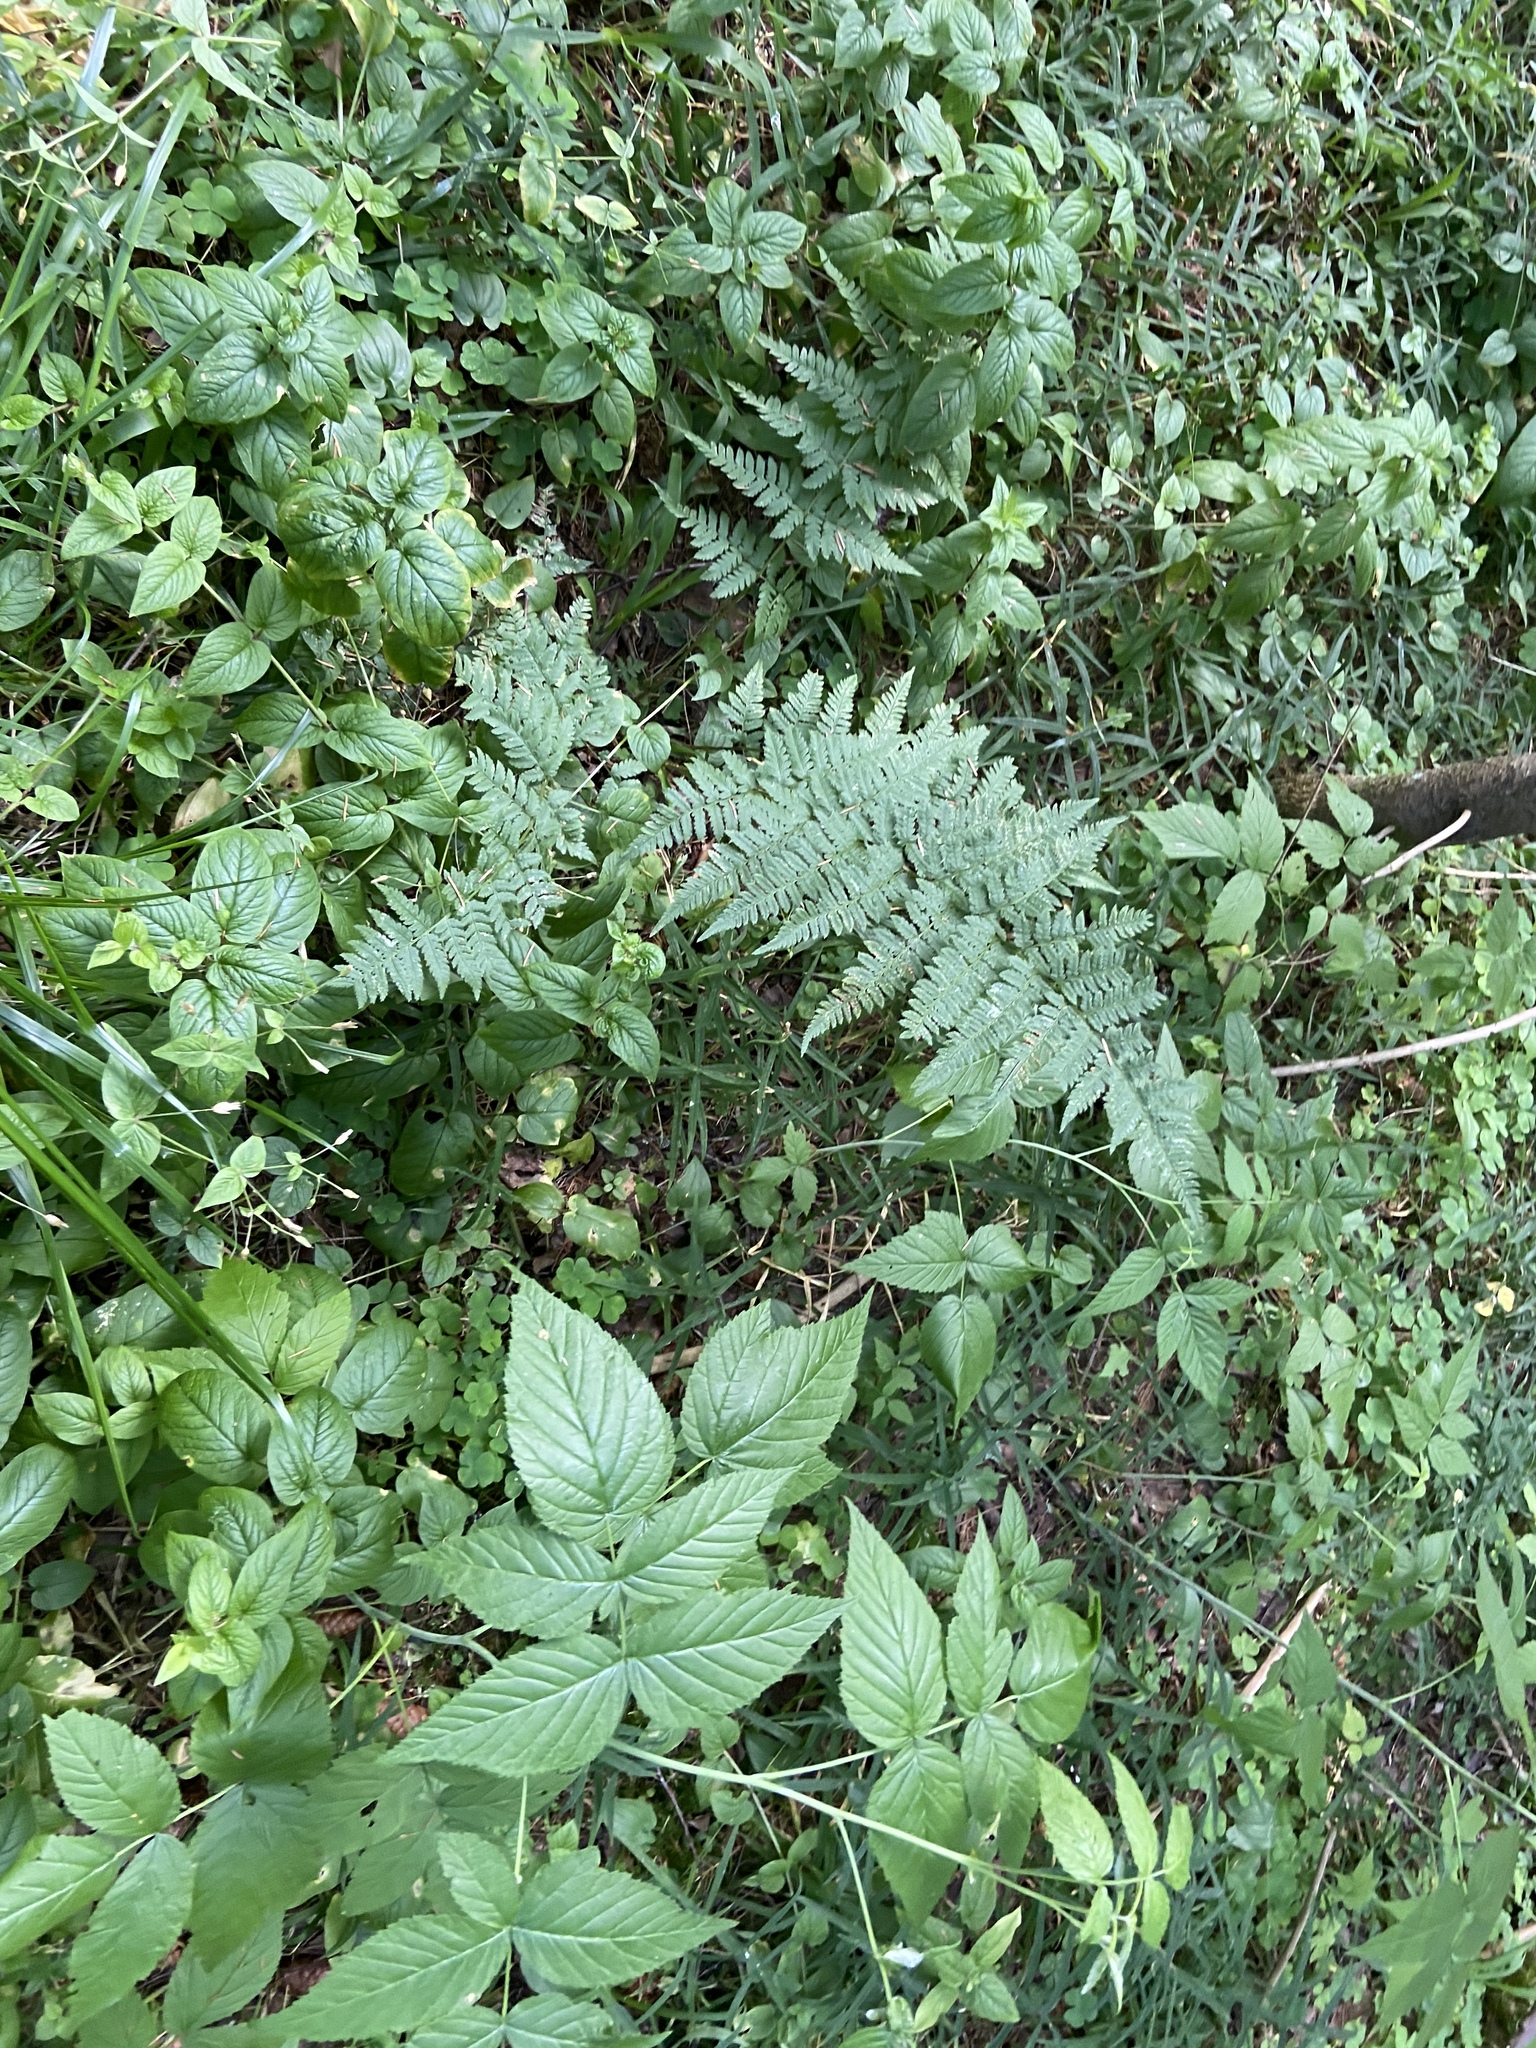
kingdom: Plantae
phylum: Tracheophyta
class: Polypodiopsida
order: Polypodiales
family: Dryopteridaceae
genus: Dryopteris
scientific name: Dryopteris carthusiana
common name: Narrow buckler-fern
